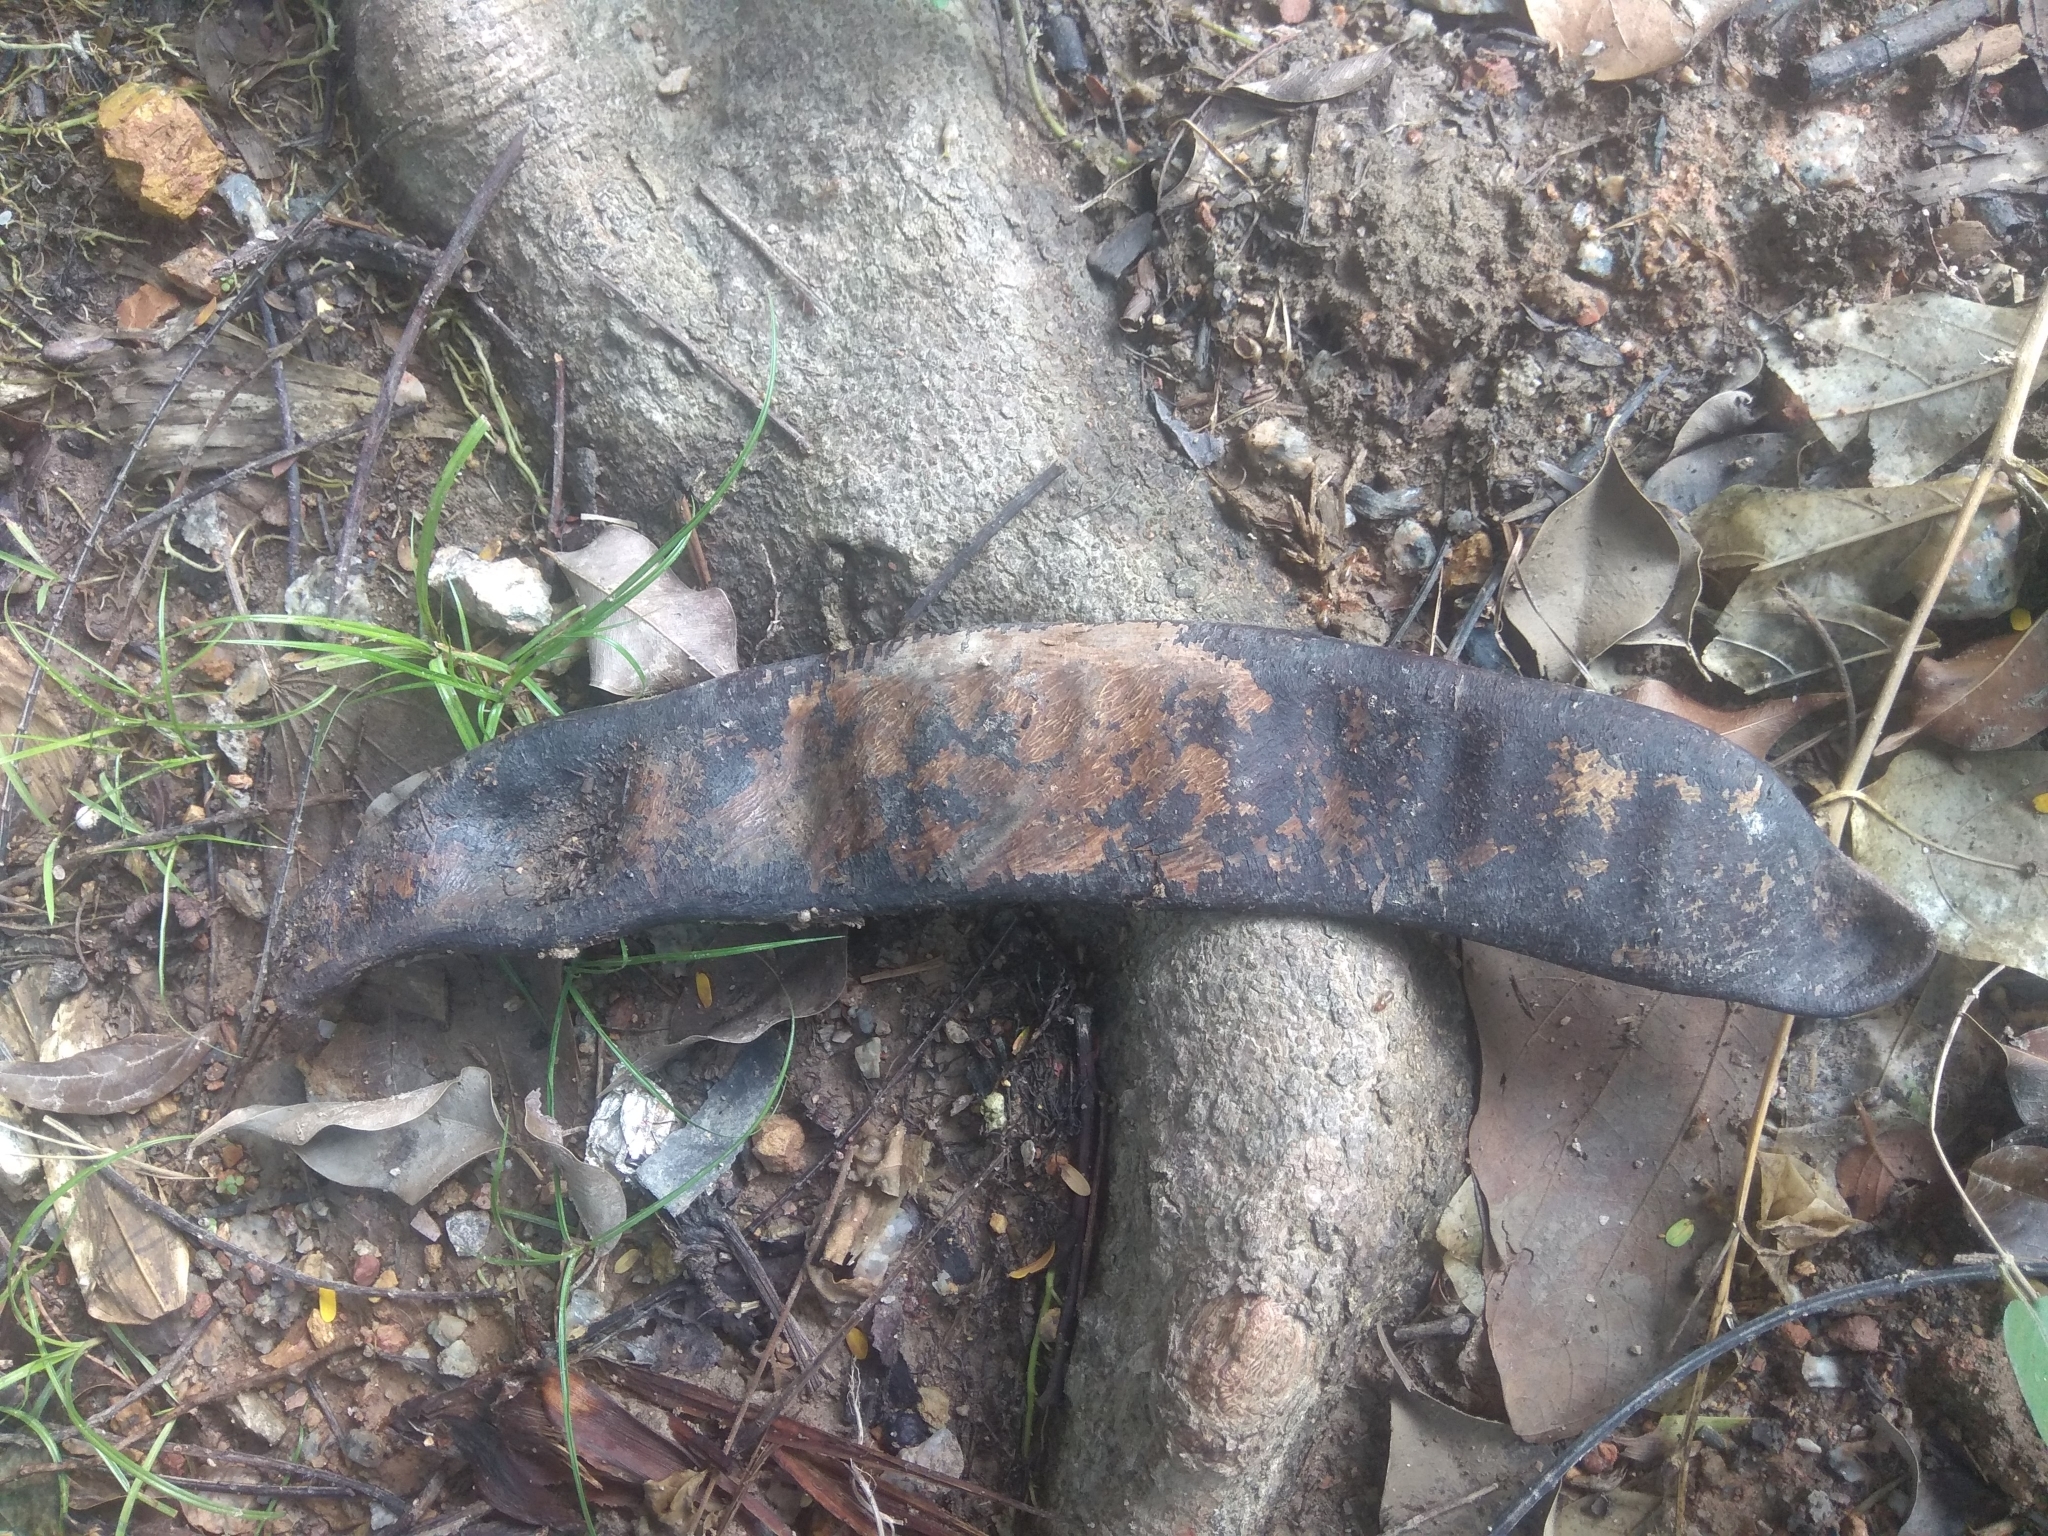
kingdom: Plantae
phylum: Tracheophyta
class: Magnoliopsida
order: Fabales
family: Fabaceae
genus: Delonix
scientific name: Delonix regia
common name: Royal poinciana
